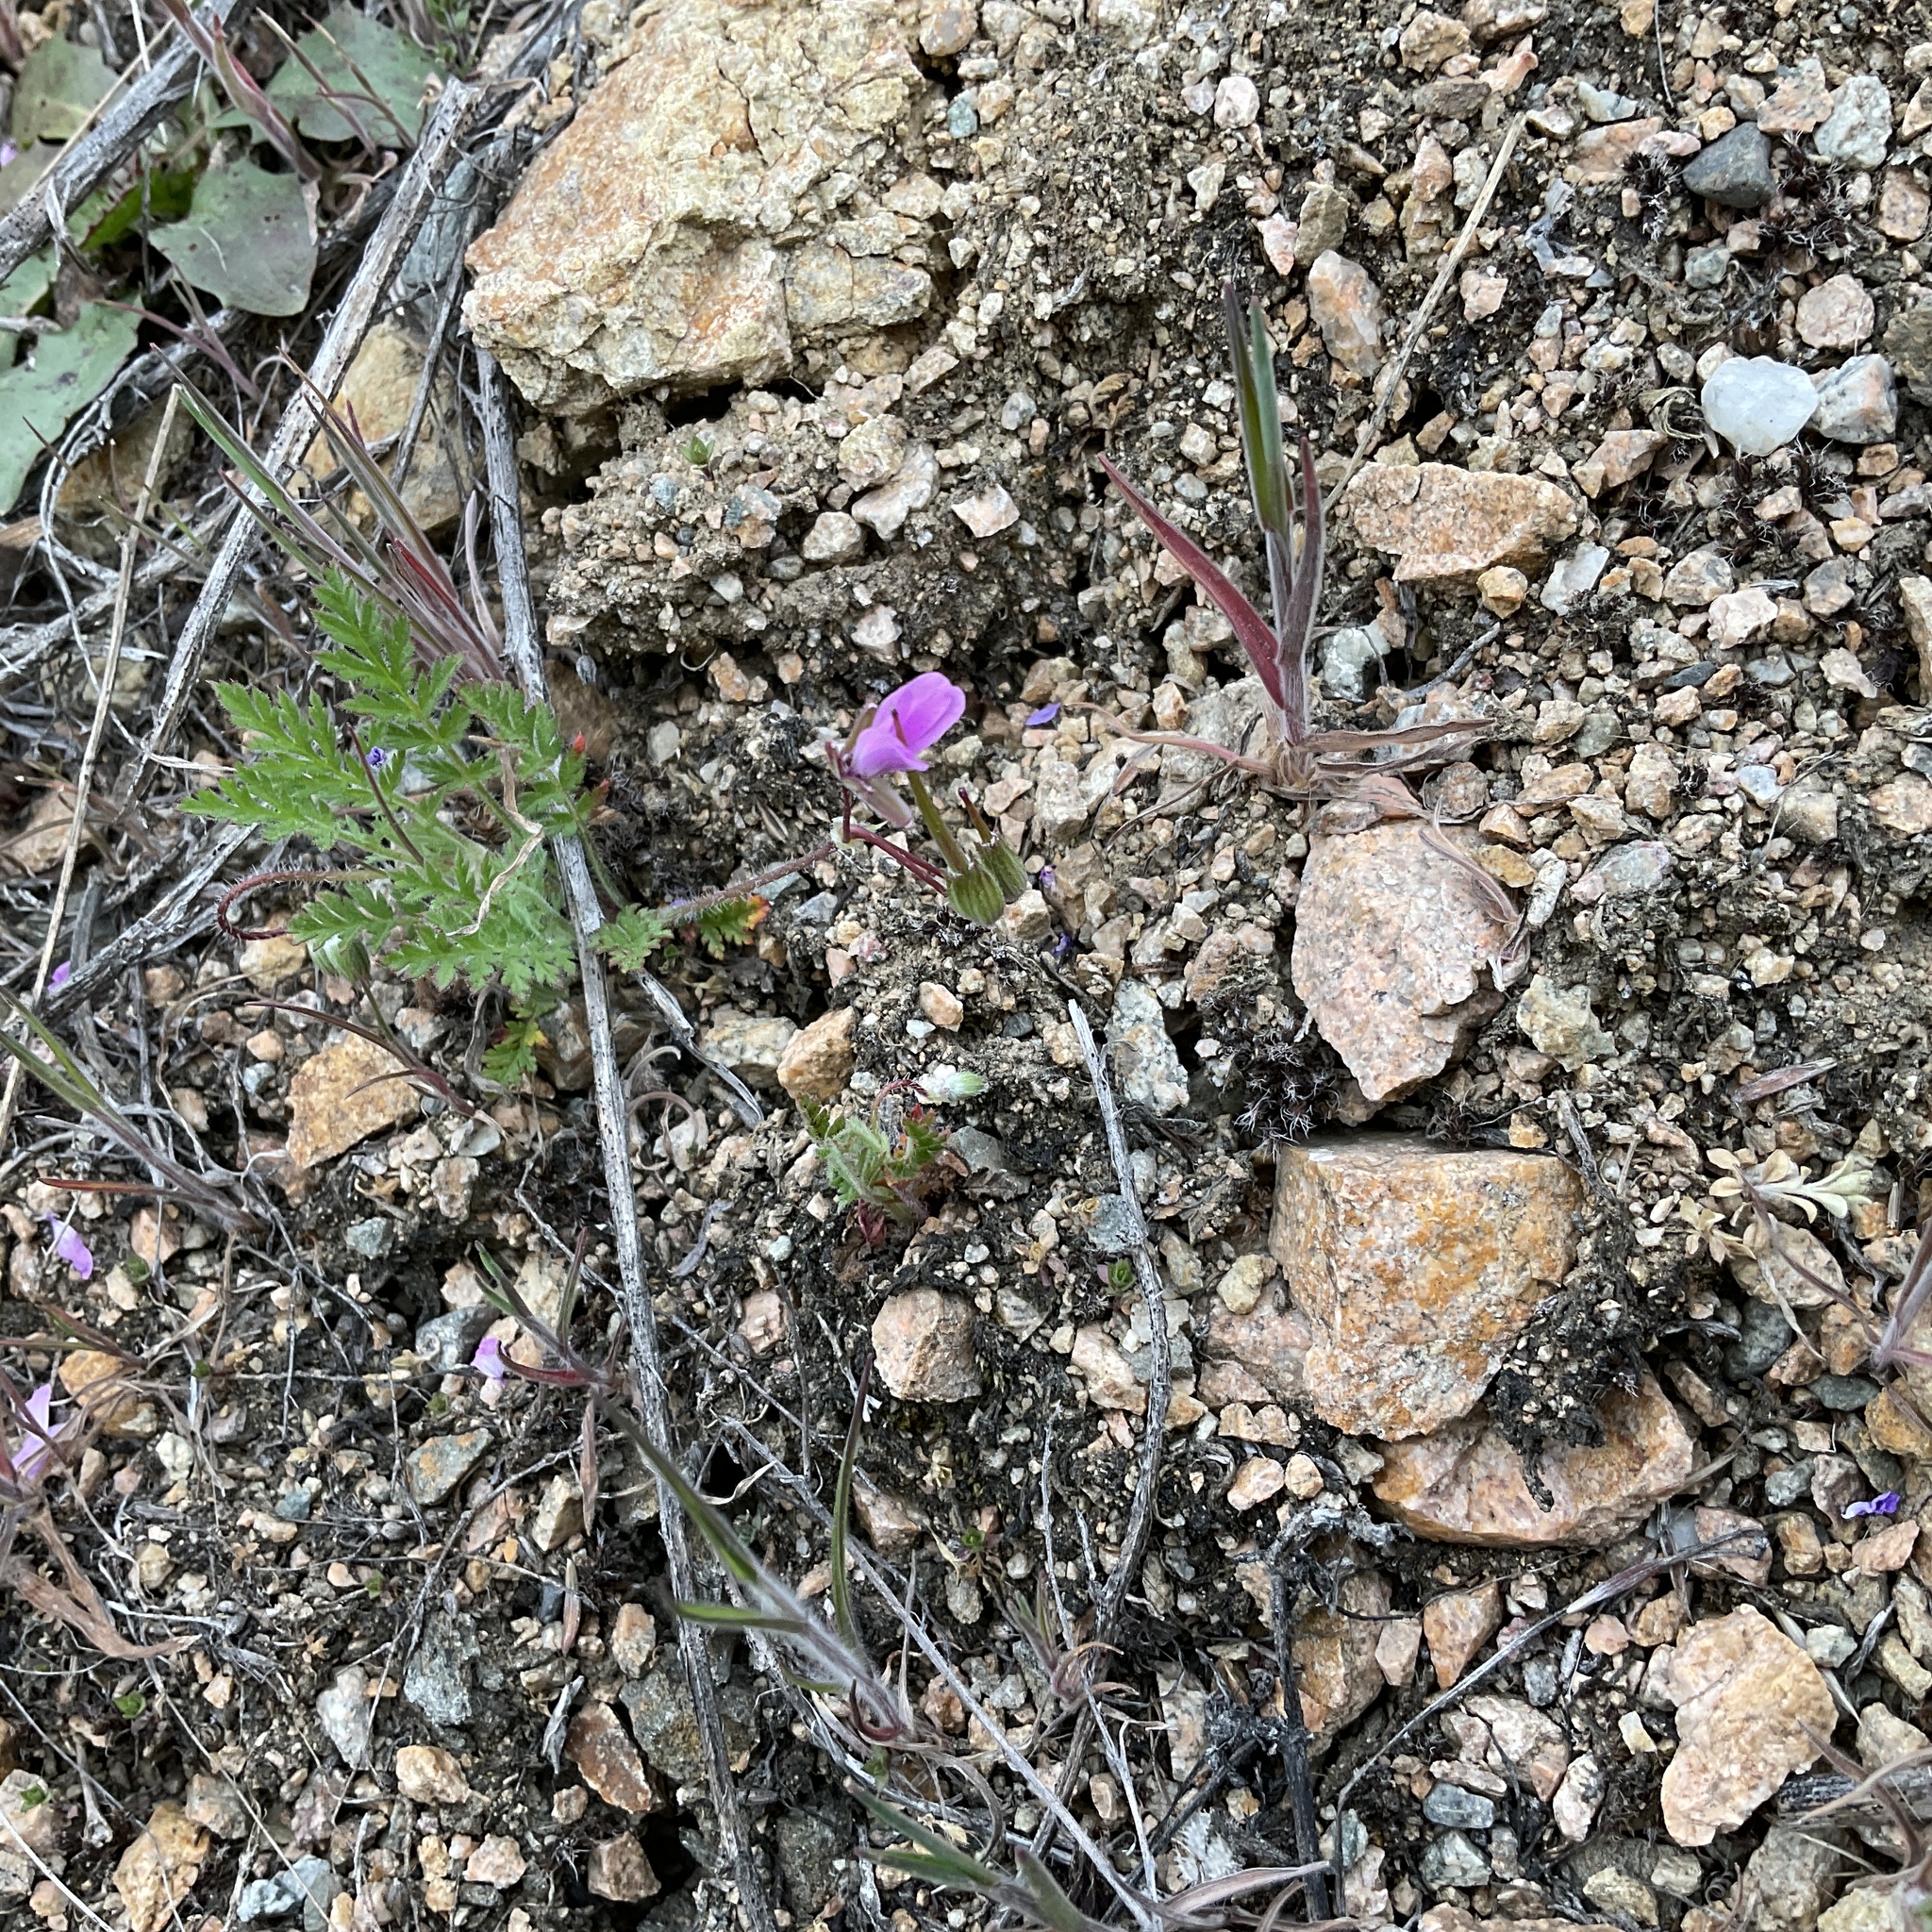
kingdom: Plantae
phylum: Tracheophyta
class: Magnoliopsida
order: Geraniales
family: Geraniaceae
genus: Erodium
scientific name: Erodium cicutarium
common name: Common stork's-bill
